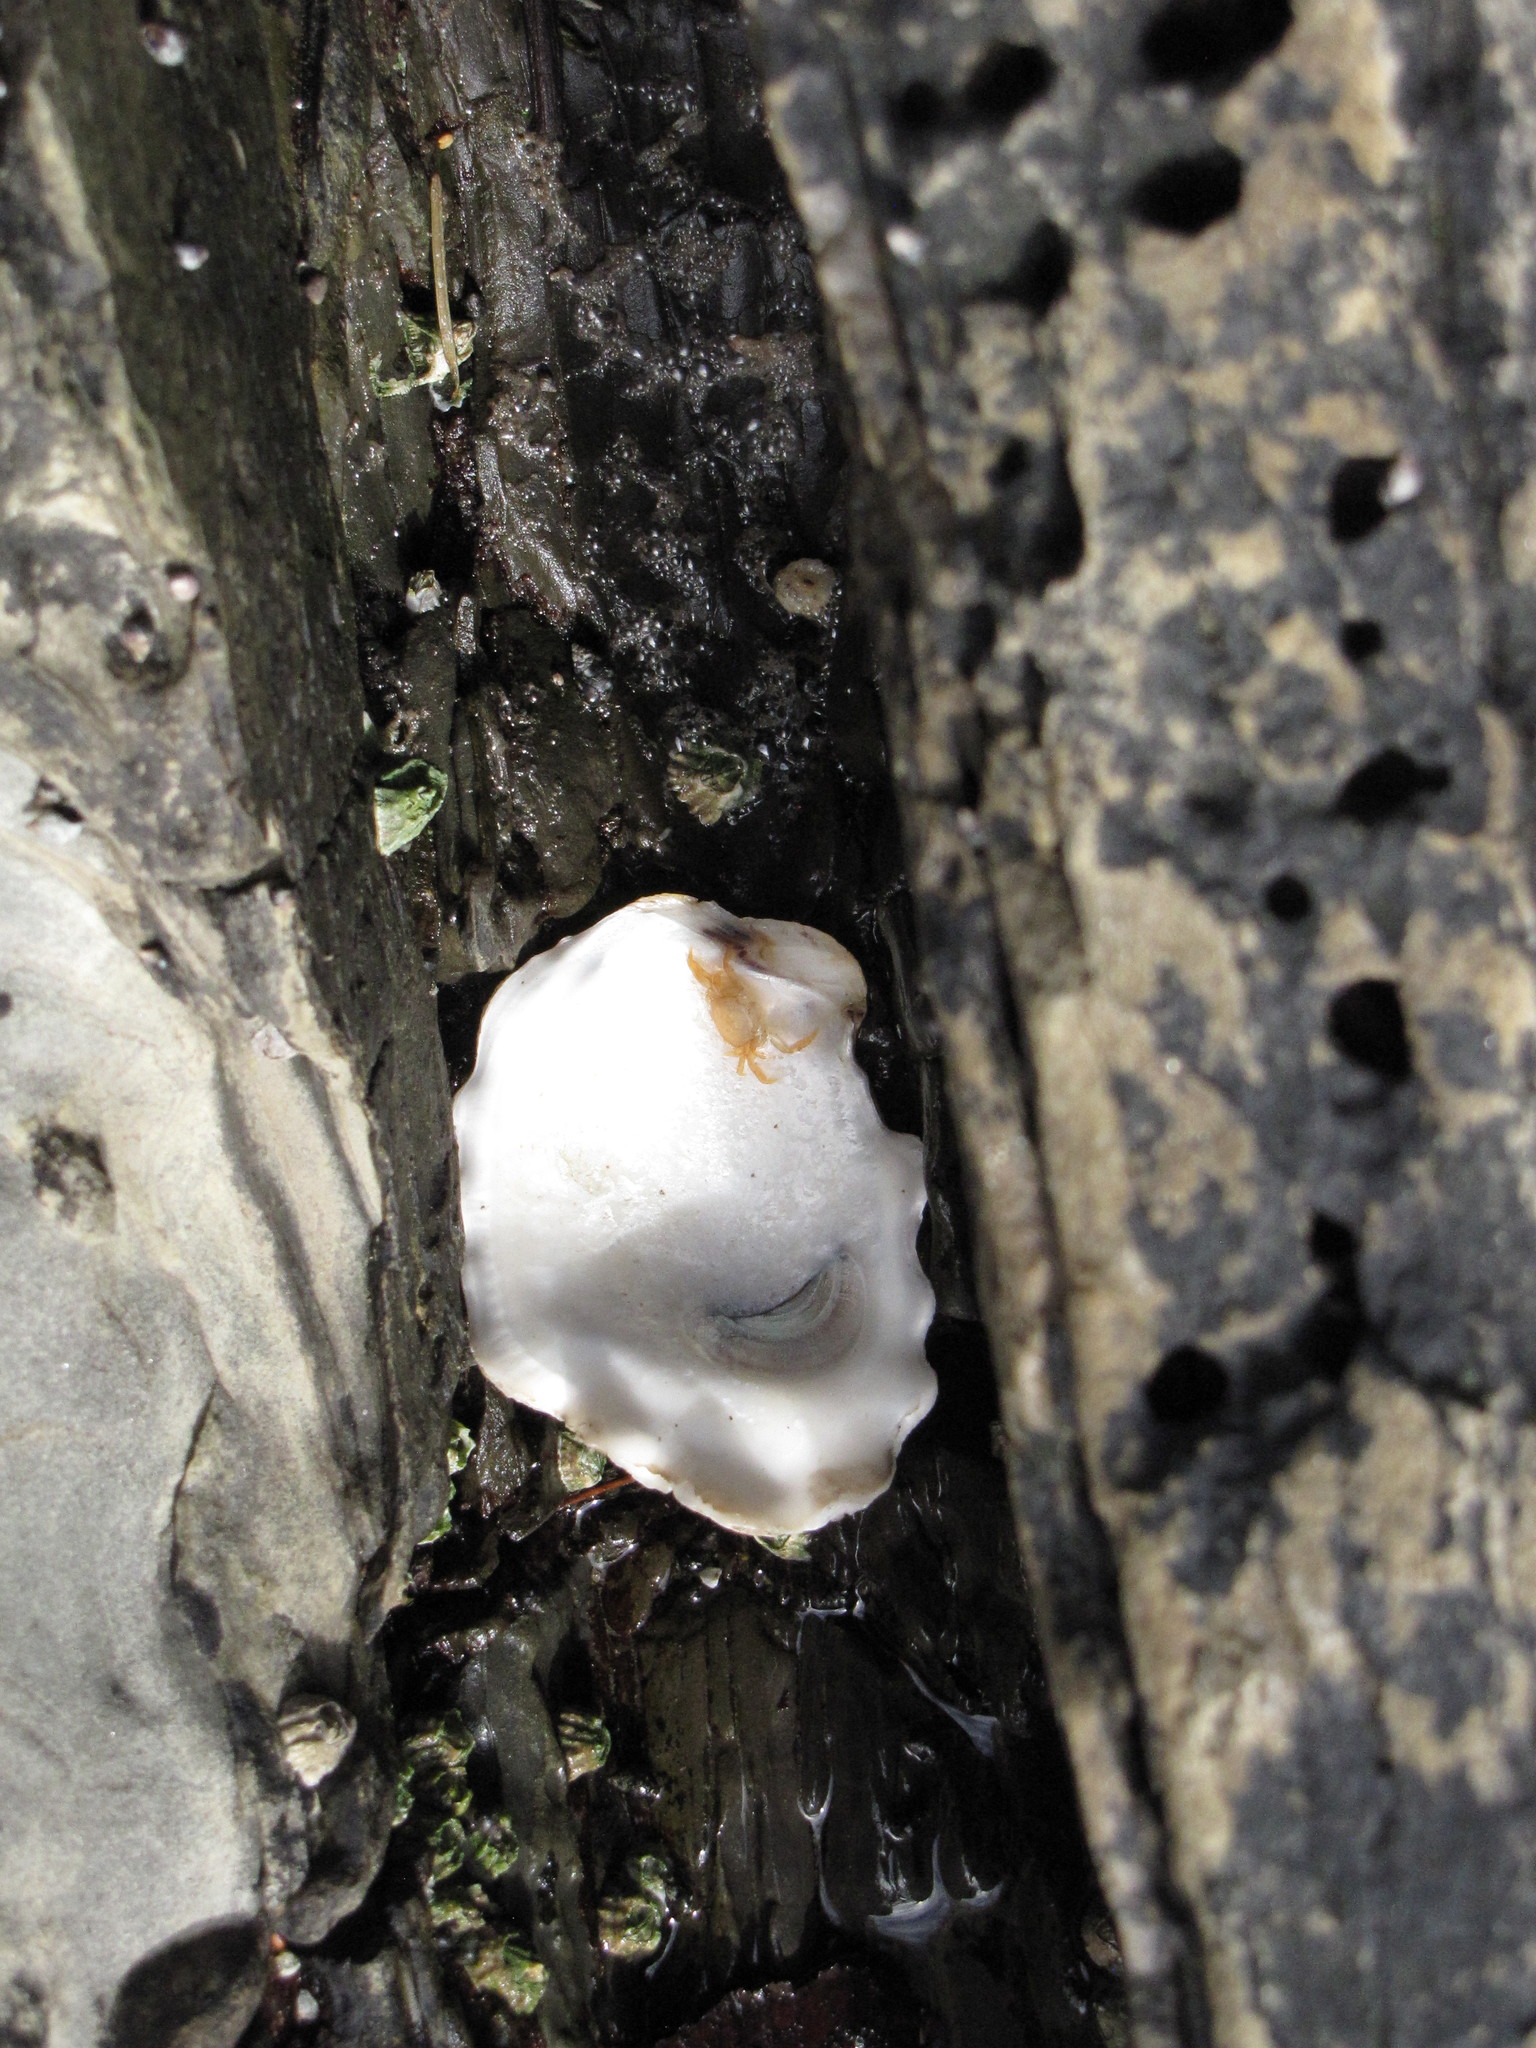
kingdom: Animalia
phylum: Mollusca
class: Bivalvia
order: Ostreida
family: Ostreidae
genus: Magallana
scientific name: Magallana gigas
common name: Pacific oyster
